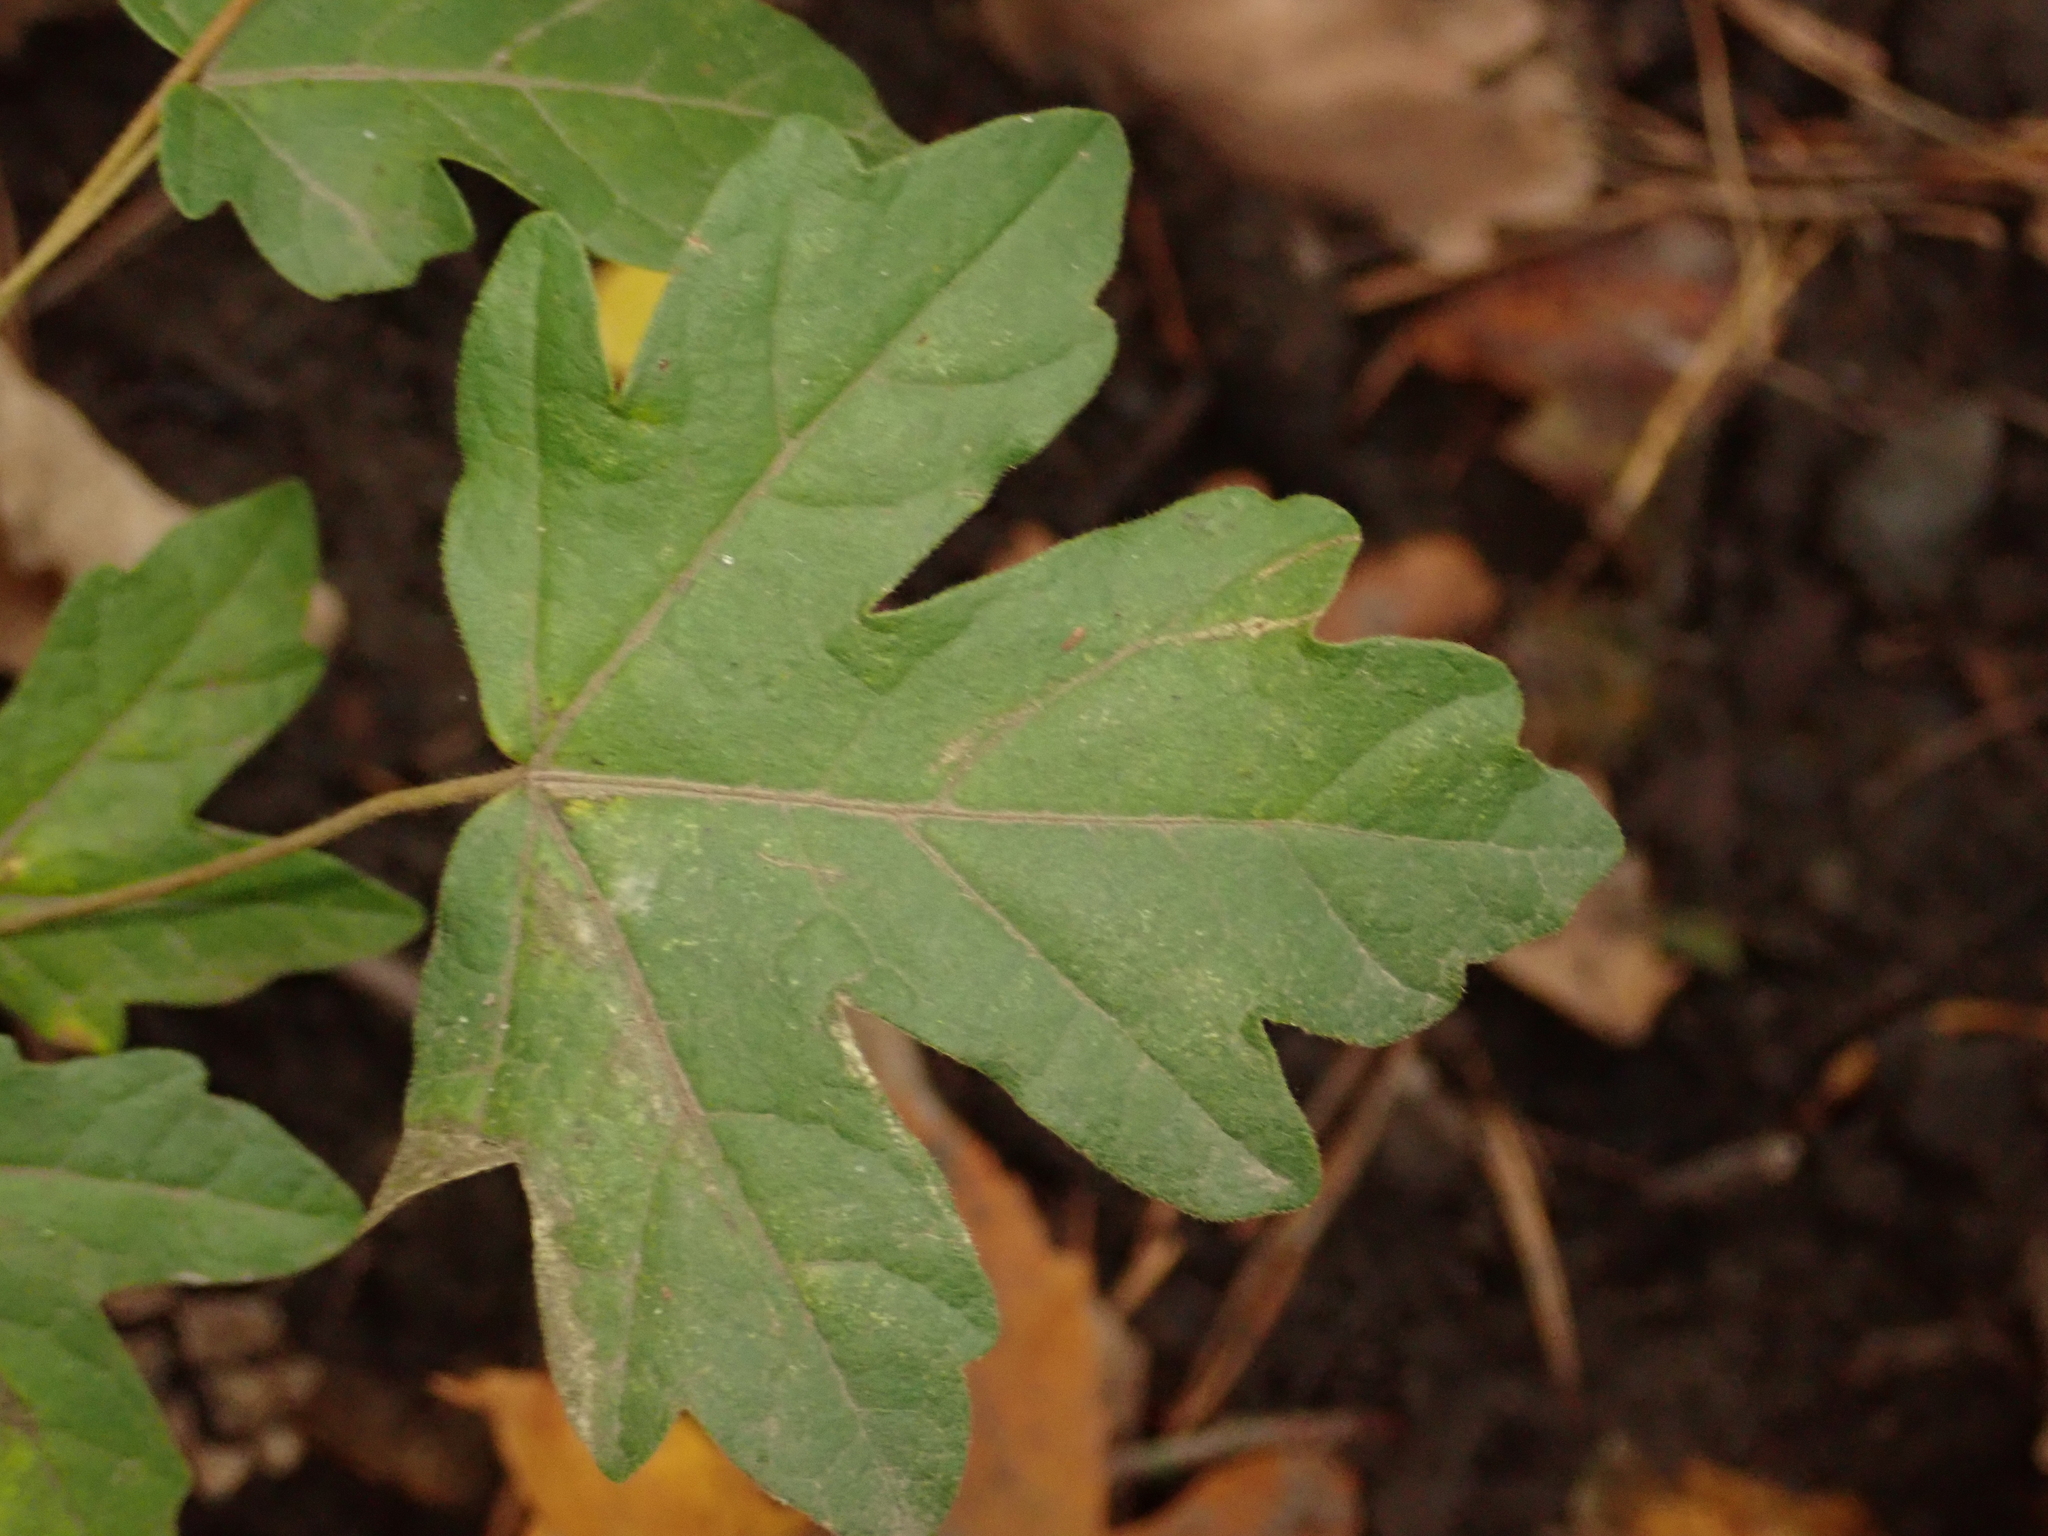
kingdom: Plantae
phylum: Tracheophyta
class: Magnoliopsida
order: Sapindales
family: Sapindaceae
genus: Acer
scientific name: Acer campestre
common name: Field maple
